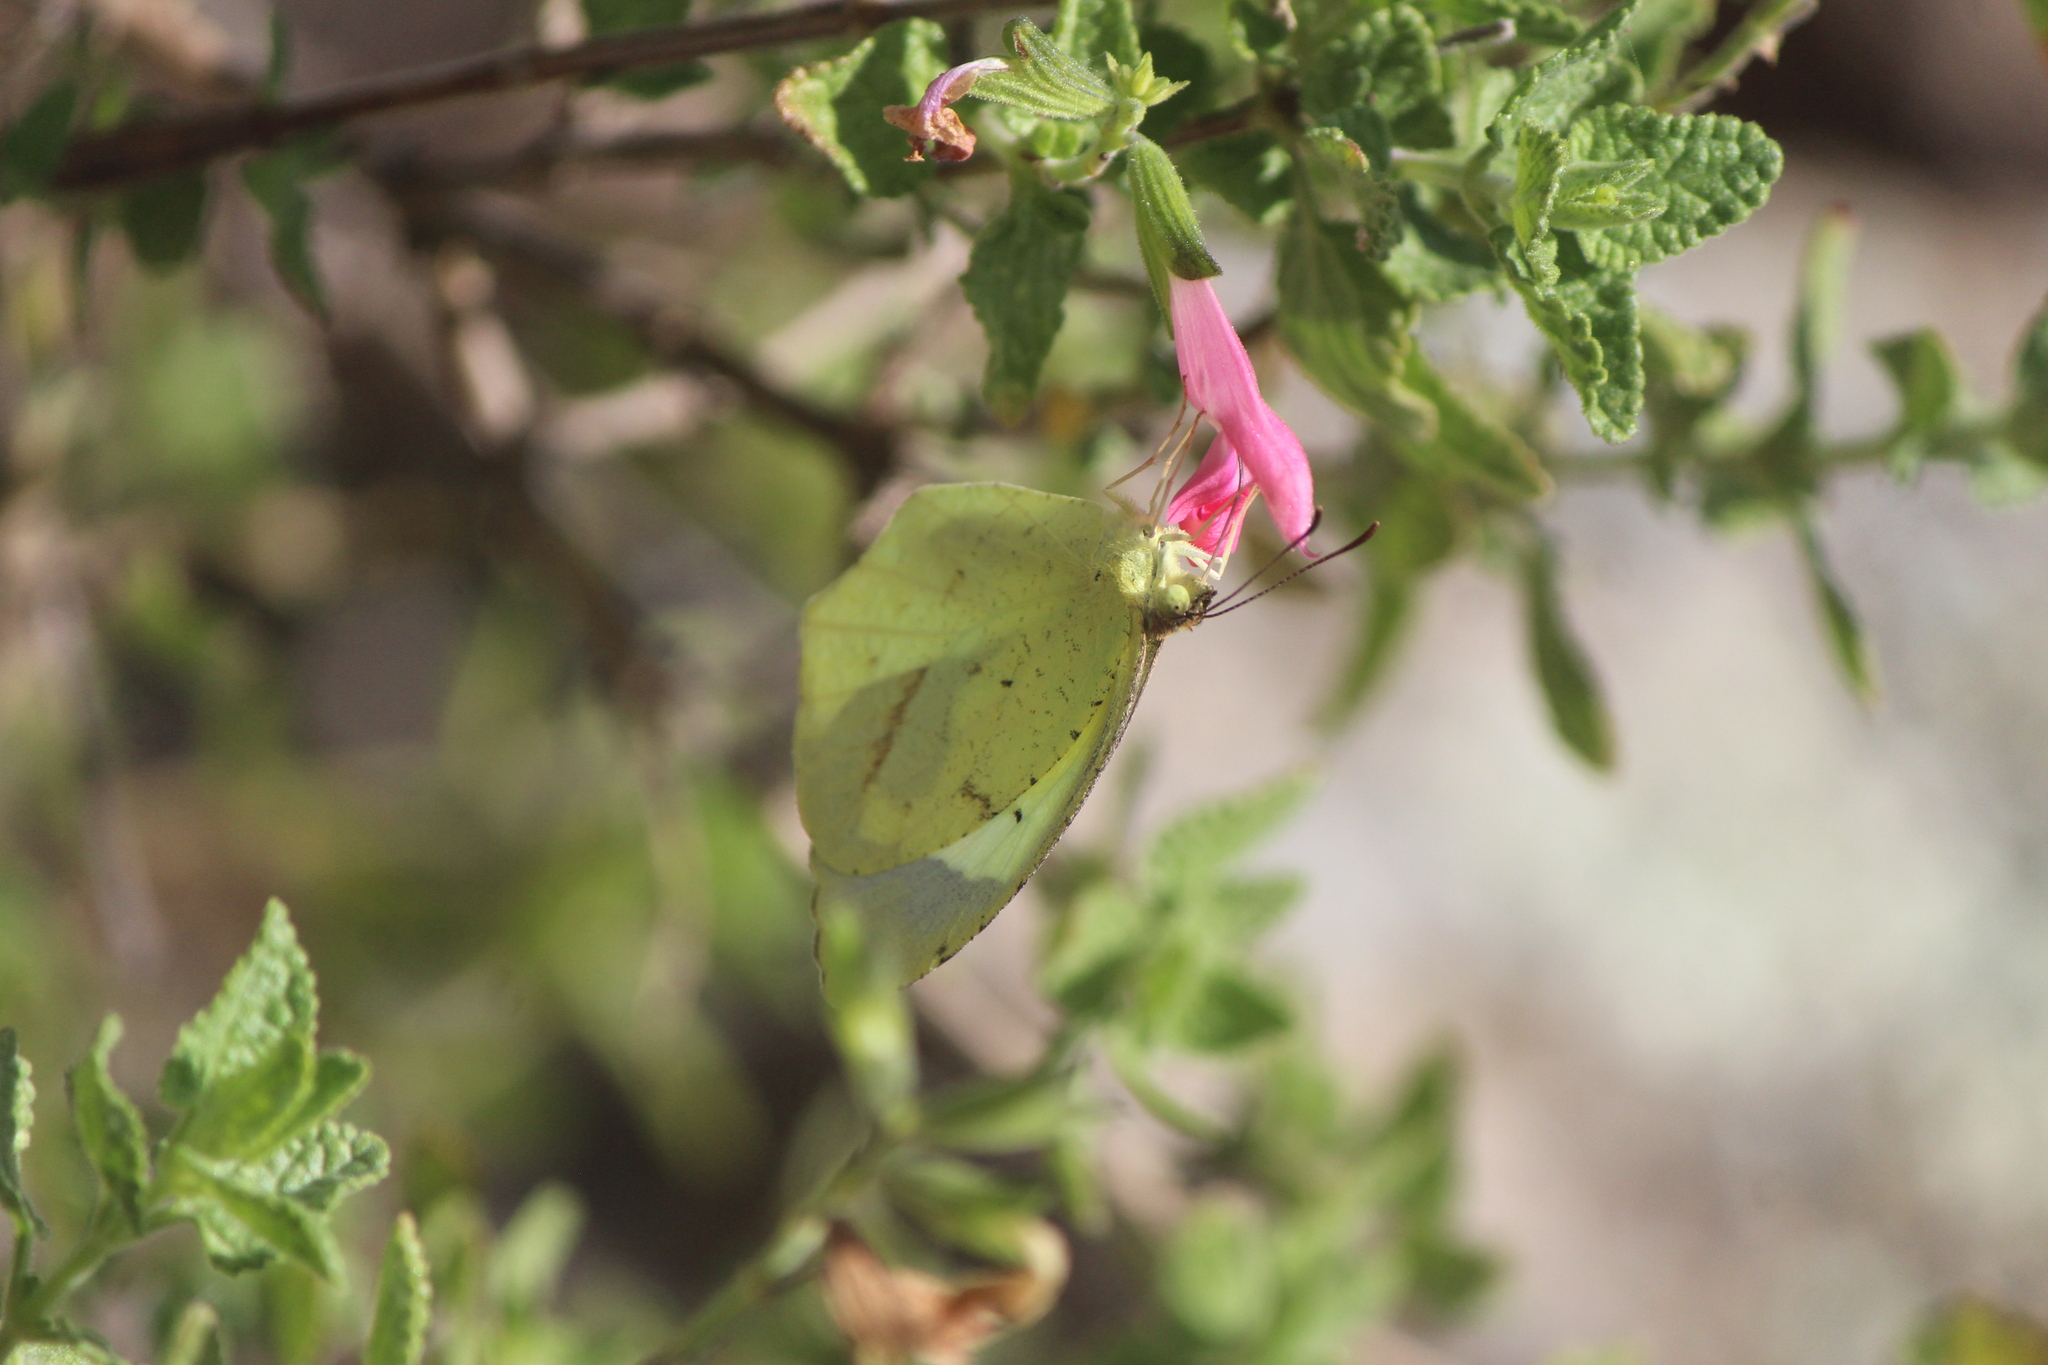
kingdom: Animalia
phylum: Arthropoda
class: Insecta
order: Lepidoptera
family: Pieridae
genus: Abaeis
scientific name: Abaeis mexicana
